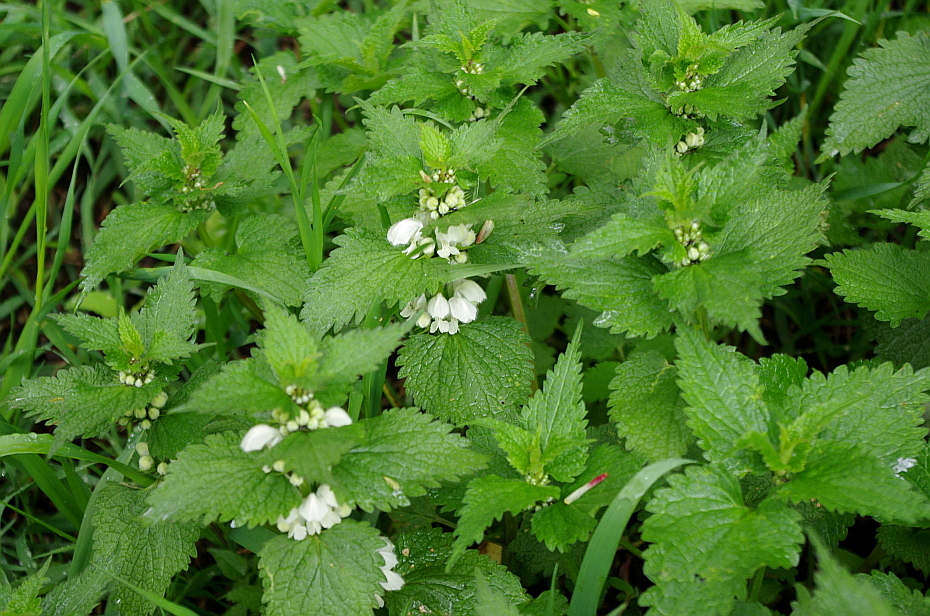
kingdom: Plantae
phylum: Tracheophyta
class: Magnoliopsida
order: Lamiales
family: Lamiaceae
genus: Lamium
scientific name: Lamium album
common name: White dead-nettle
